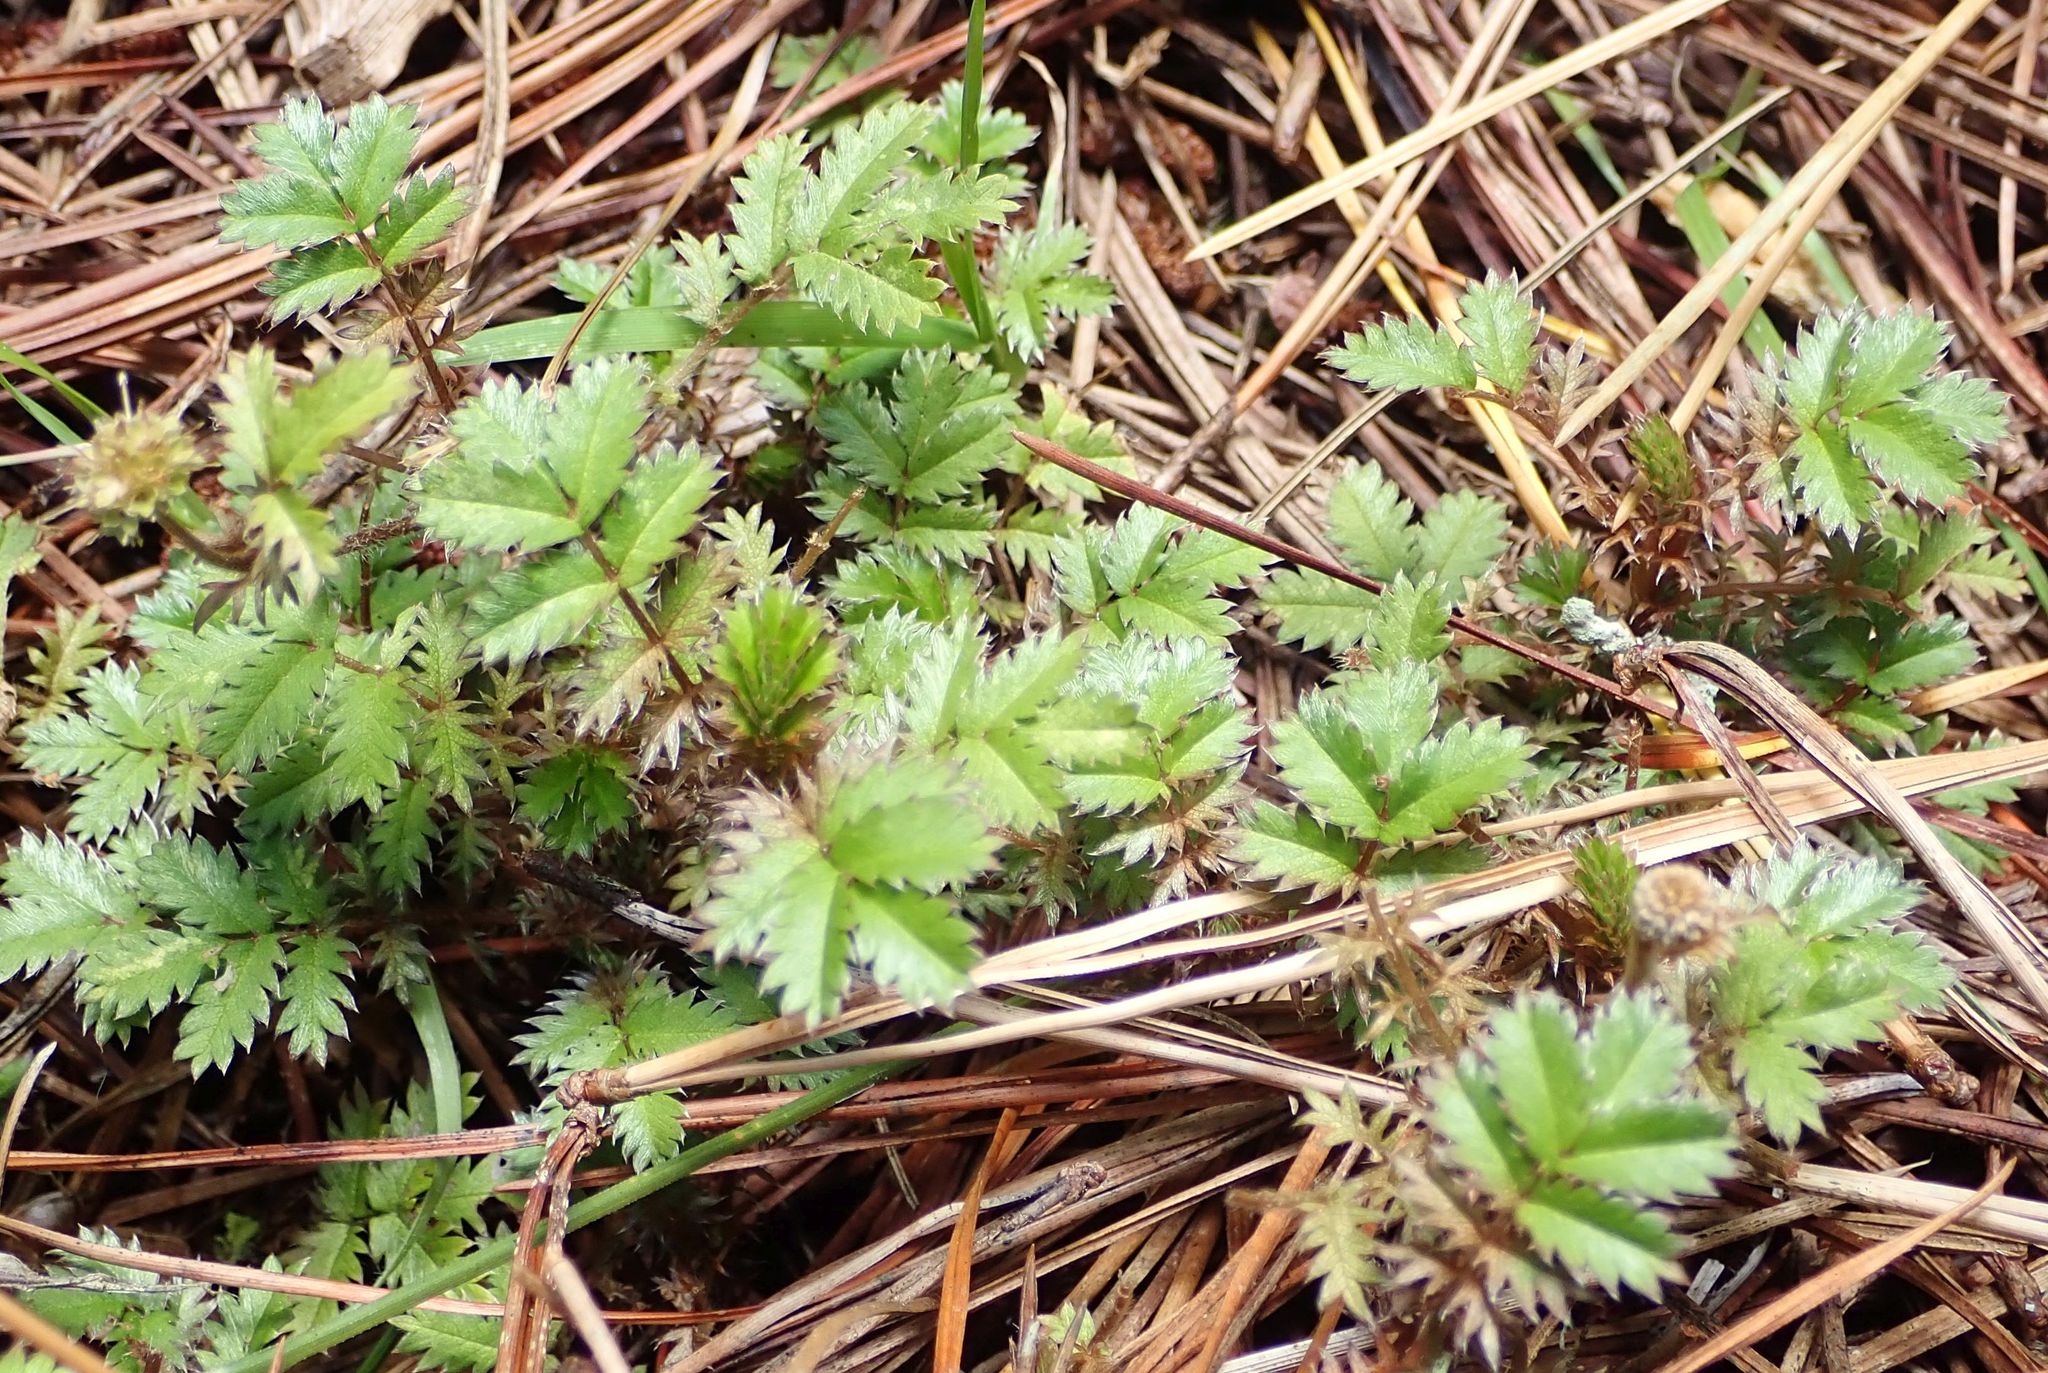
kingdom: Plantae
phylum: Tracheophyta
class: Magnoliopsida
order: Rosales
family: Rosaceae
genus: Acaena
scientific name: Acaena anserinifolia
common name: Bronze pirri-pirri-bur
